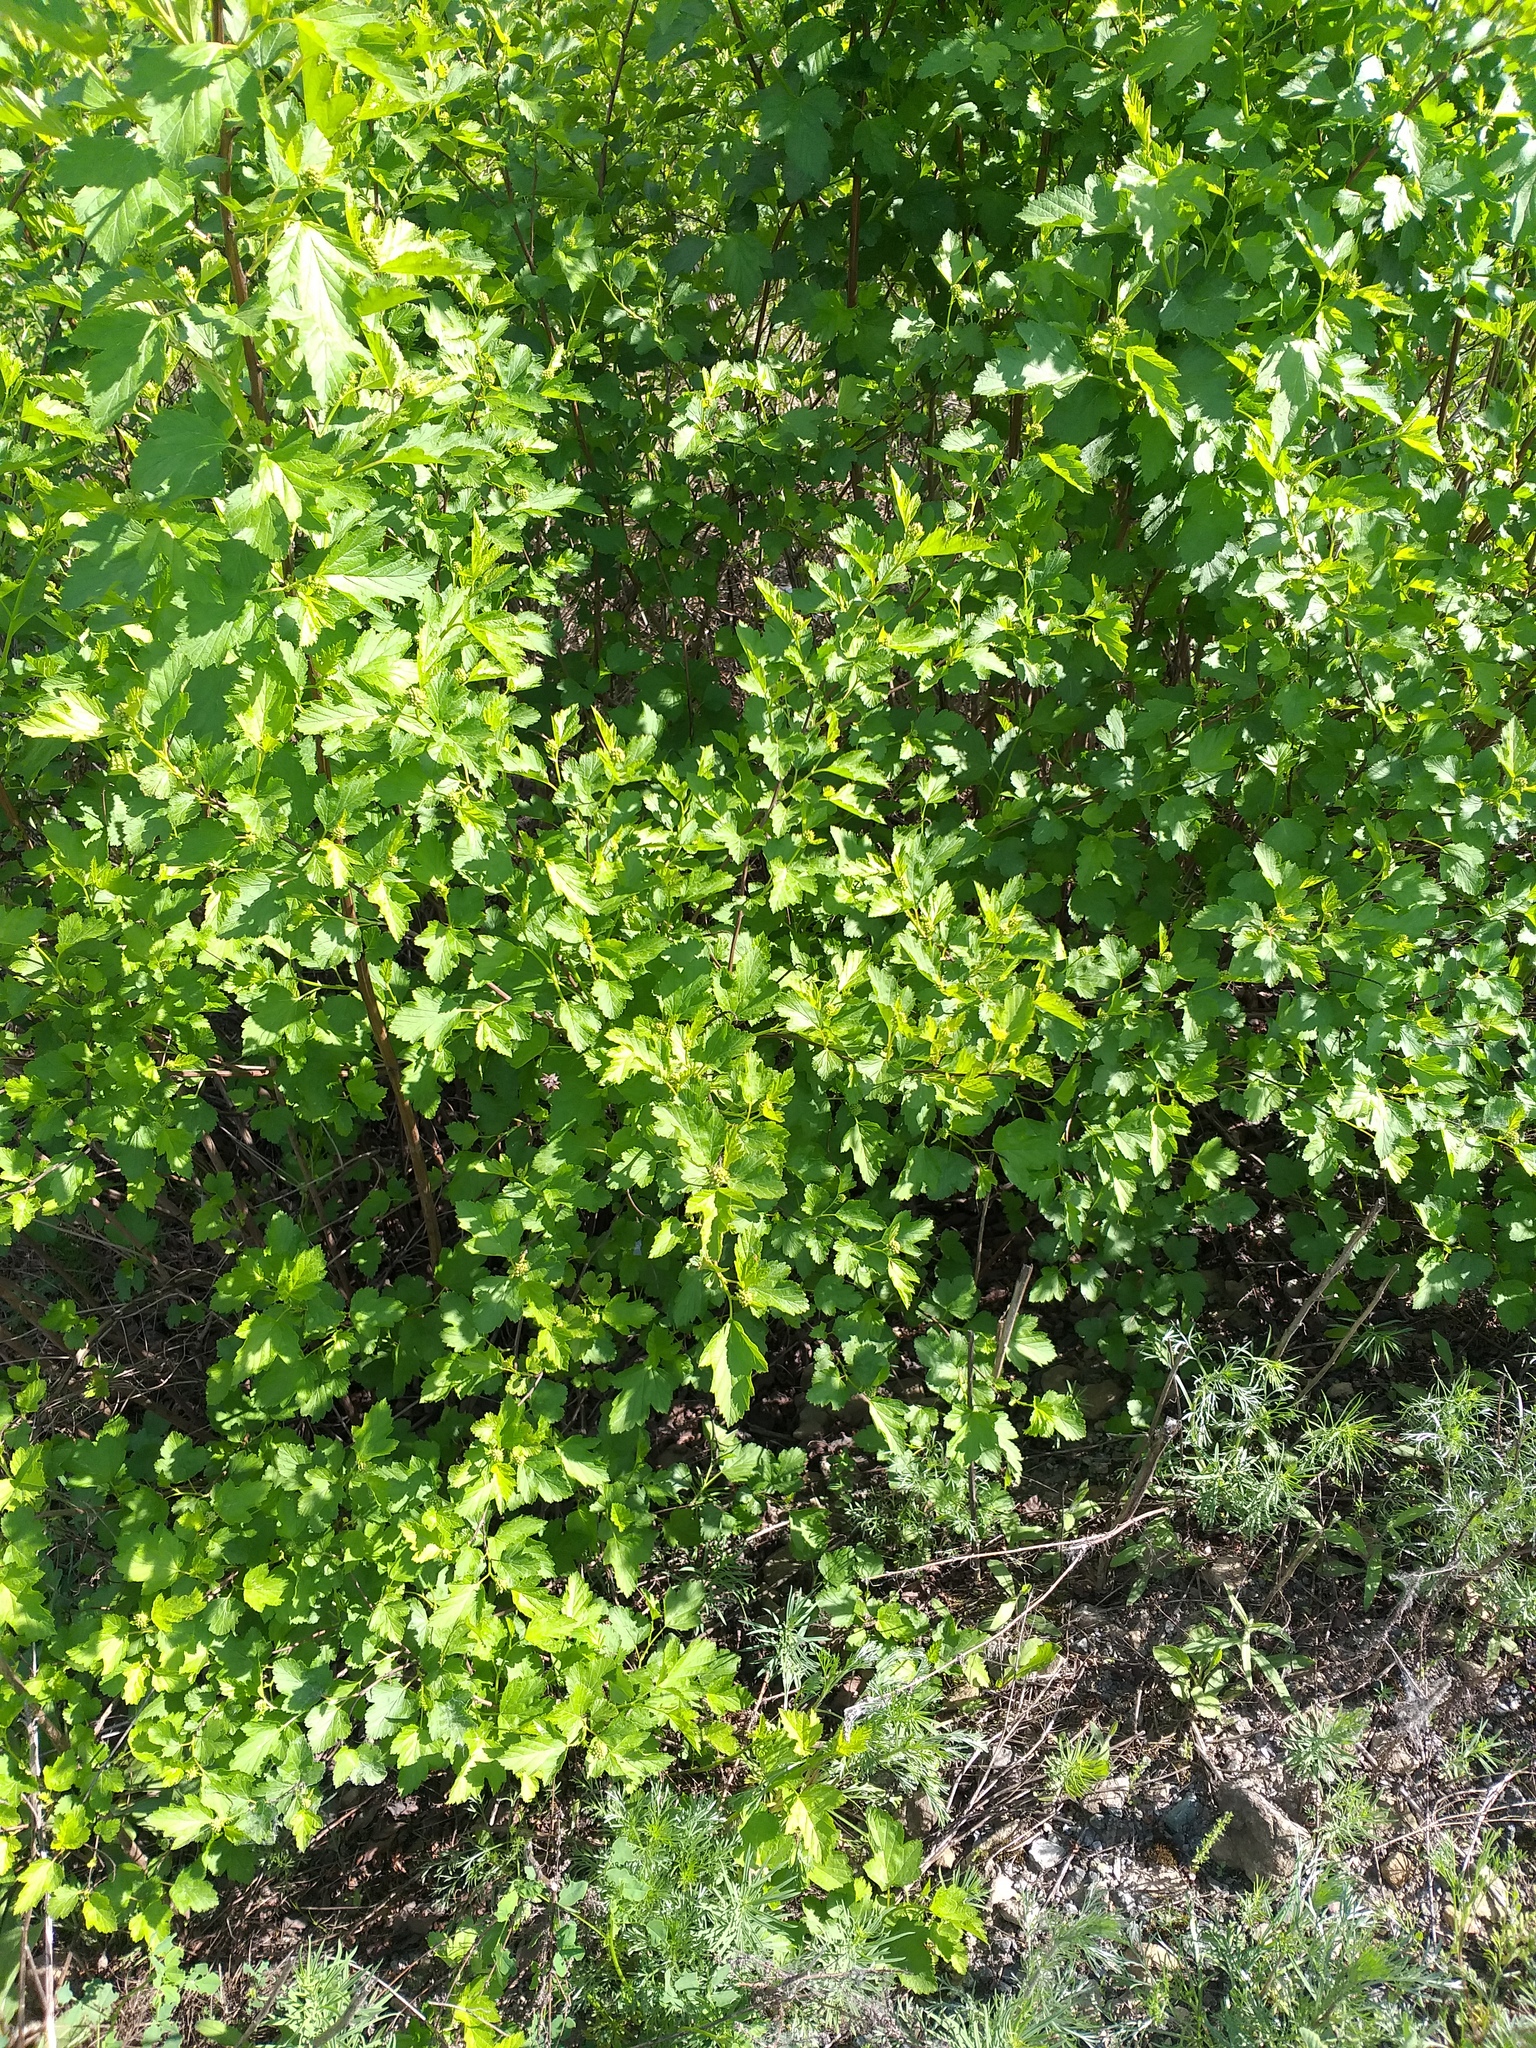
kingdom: Plantae
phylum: Tracheophyta
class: Magnoliopsida
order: Rosales
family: Rosaceae
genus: Physocarpus
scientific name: Physocarpus opulifolius
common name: Ninebark
